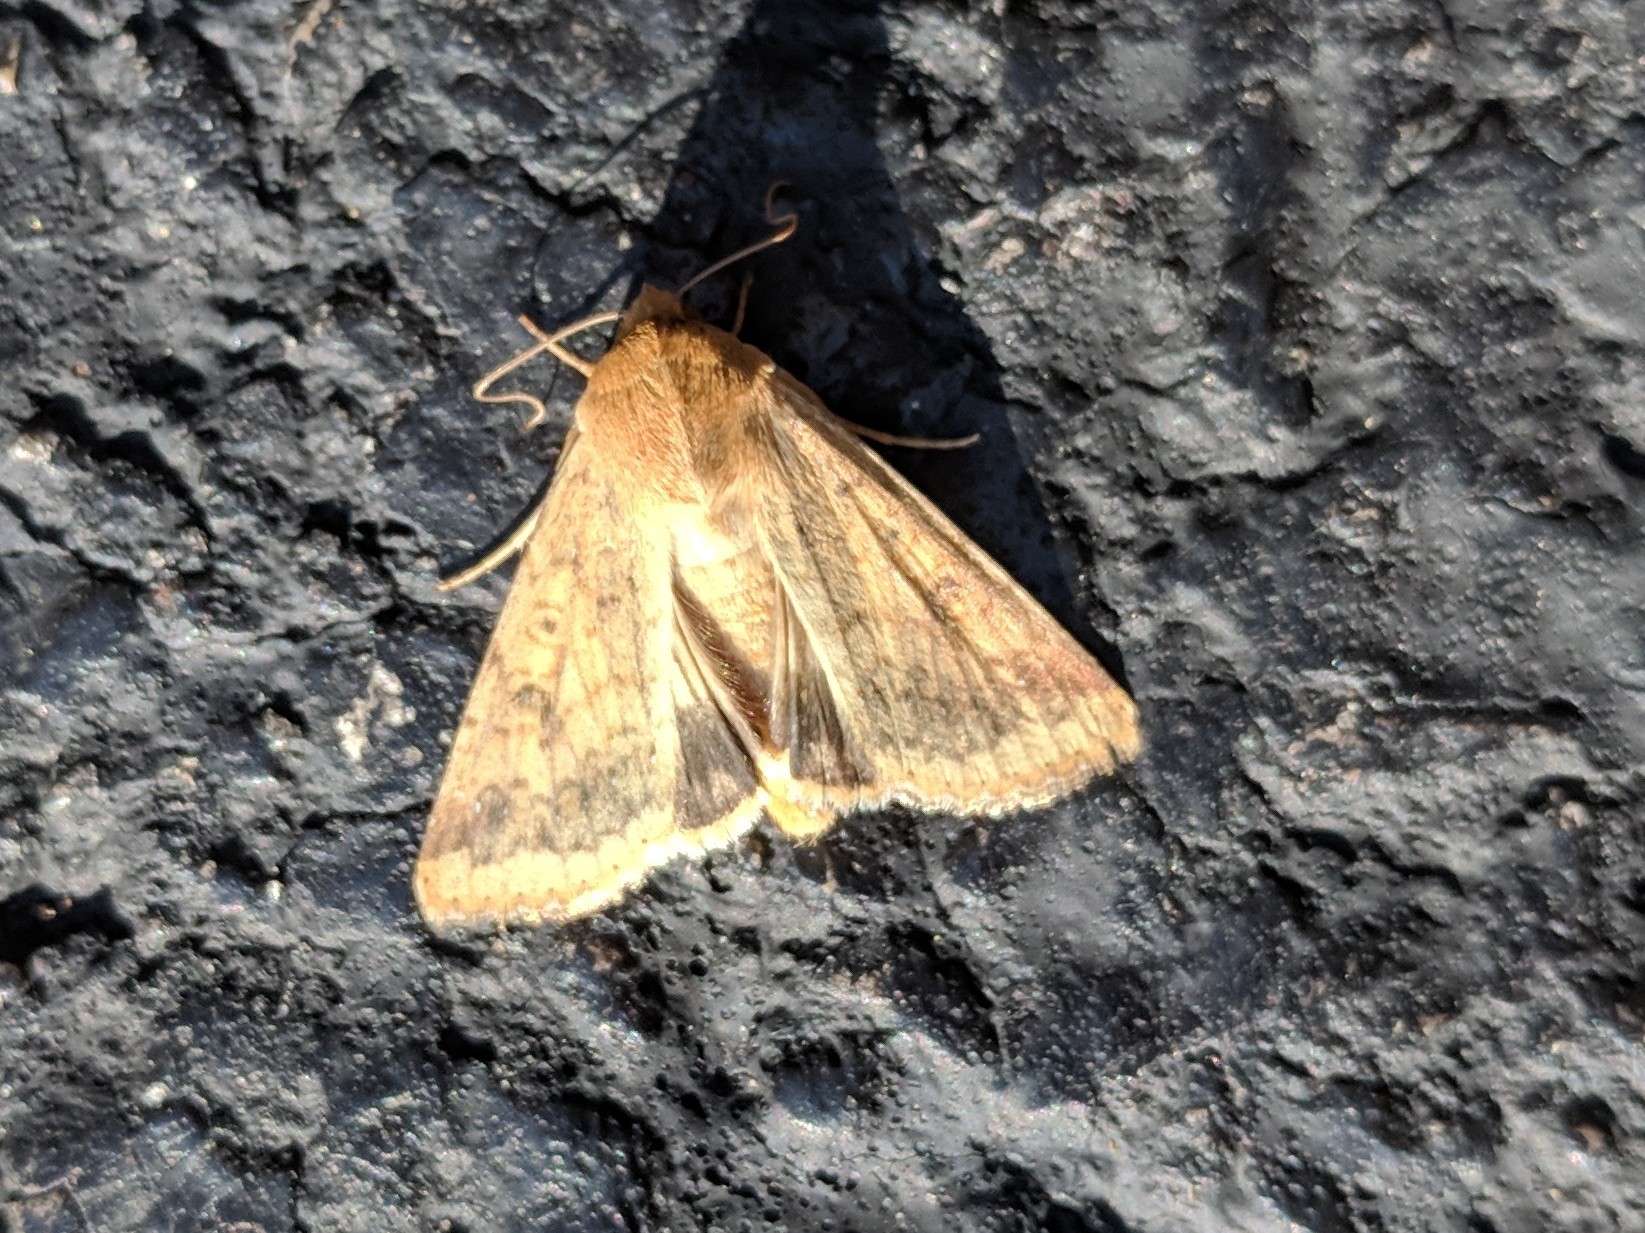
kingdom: Animalia
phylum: Arthropoda
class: Insecta
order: Lepidoptera
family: Noctuidae
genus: Helicoverpa
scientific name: Helicoverpa zea
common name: Bollworm
